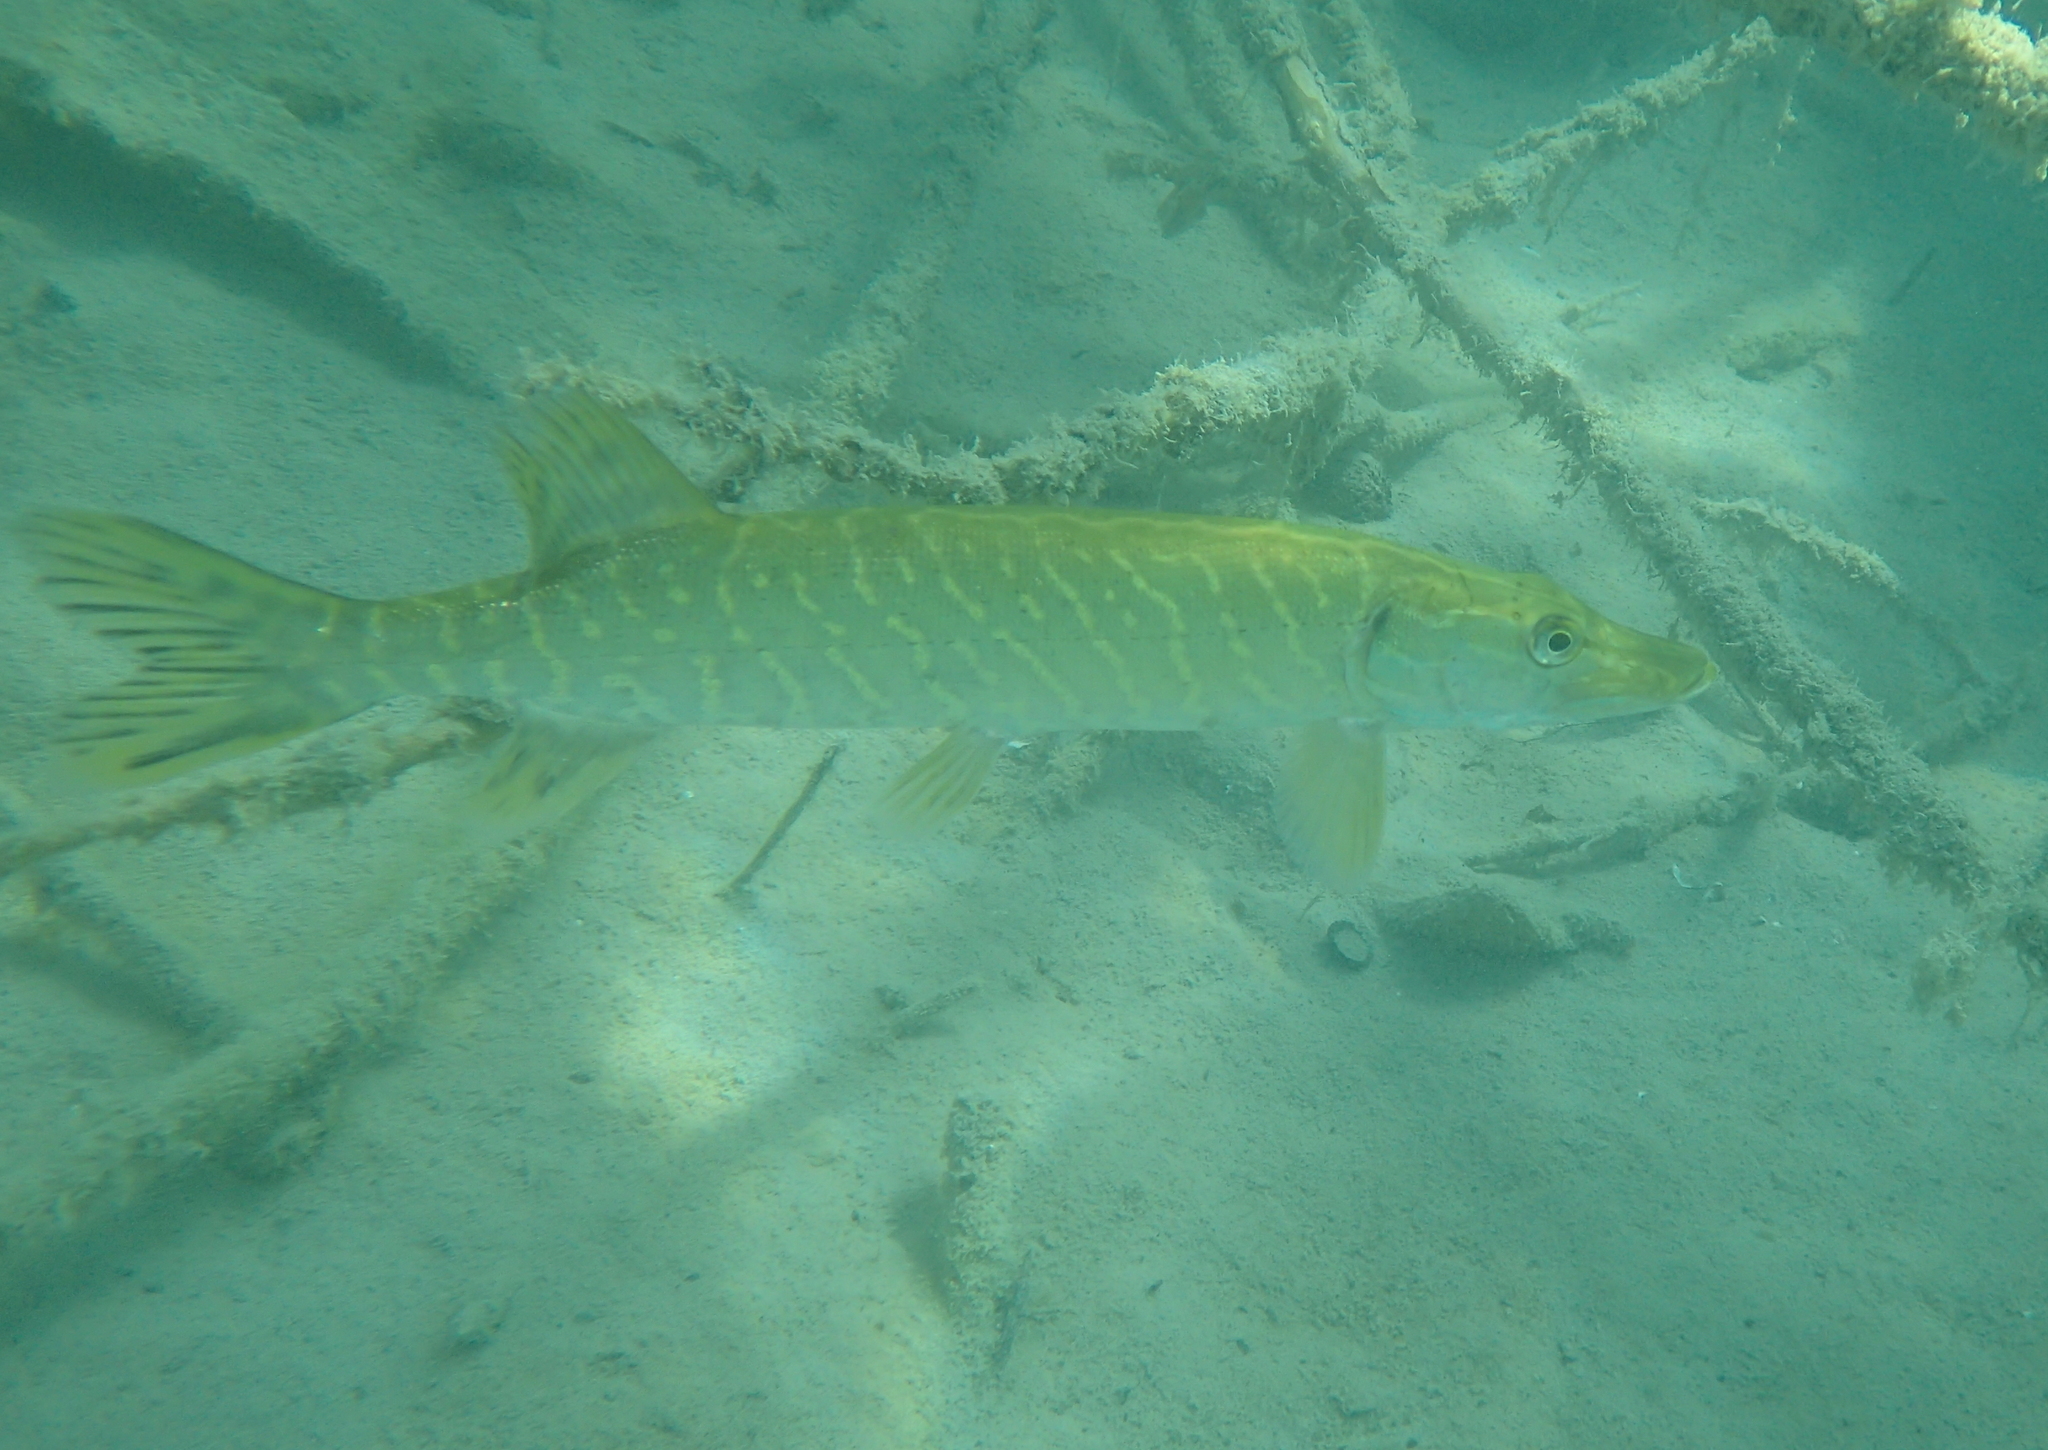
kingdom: Animalia
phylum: Chordata
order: Esociformes
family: Esocidae
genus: Esox
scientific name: Esox lucius
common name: Northern pike
